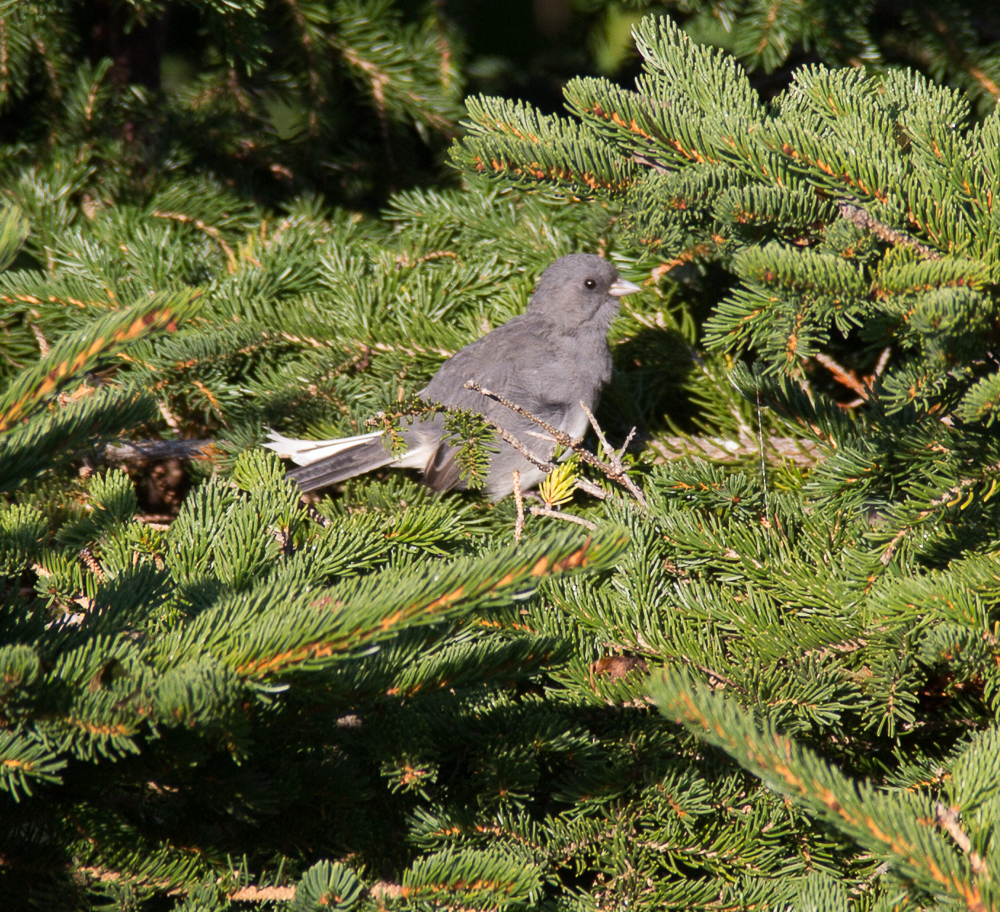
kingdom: Animalia
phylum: Chordata
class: Aves
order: Passeriformes
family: Passerellidae
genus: Junco
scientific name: Junco hyemalis
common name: Dark-eyed junco
